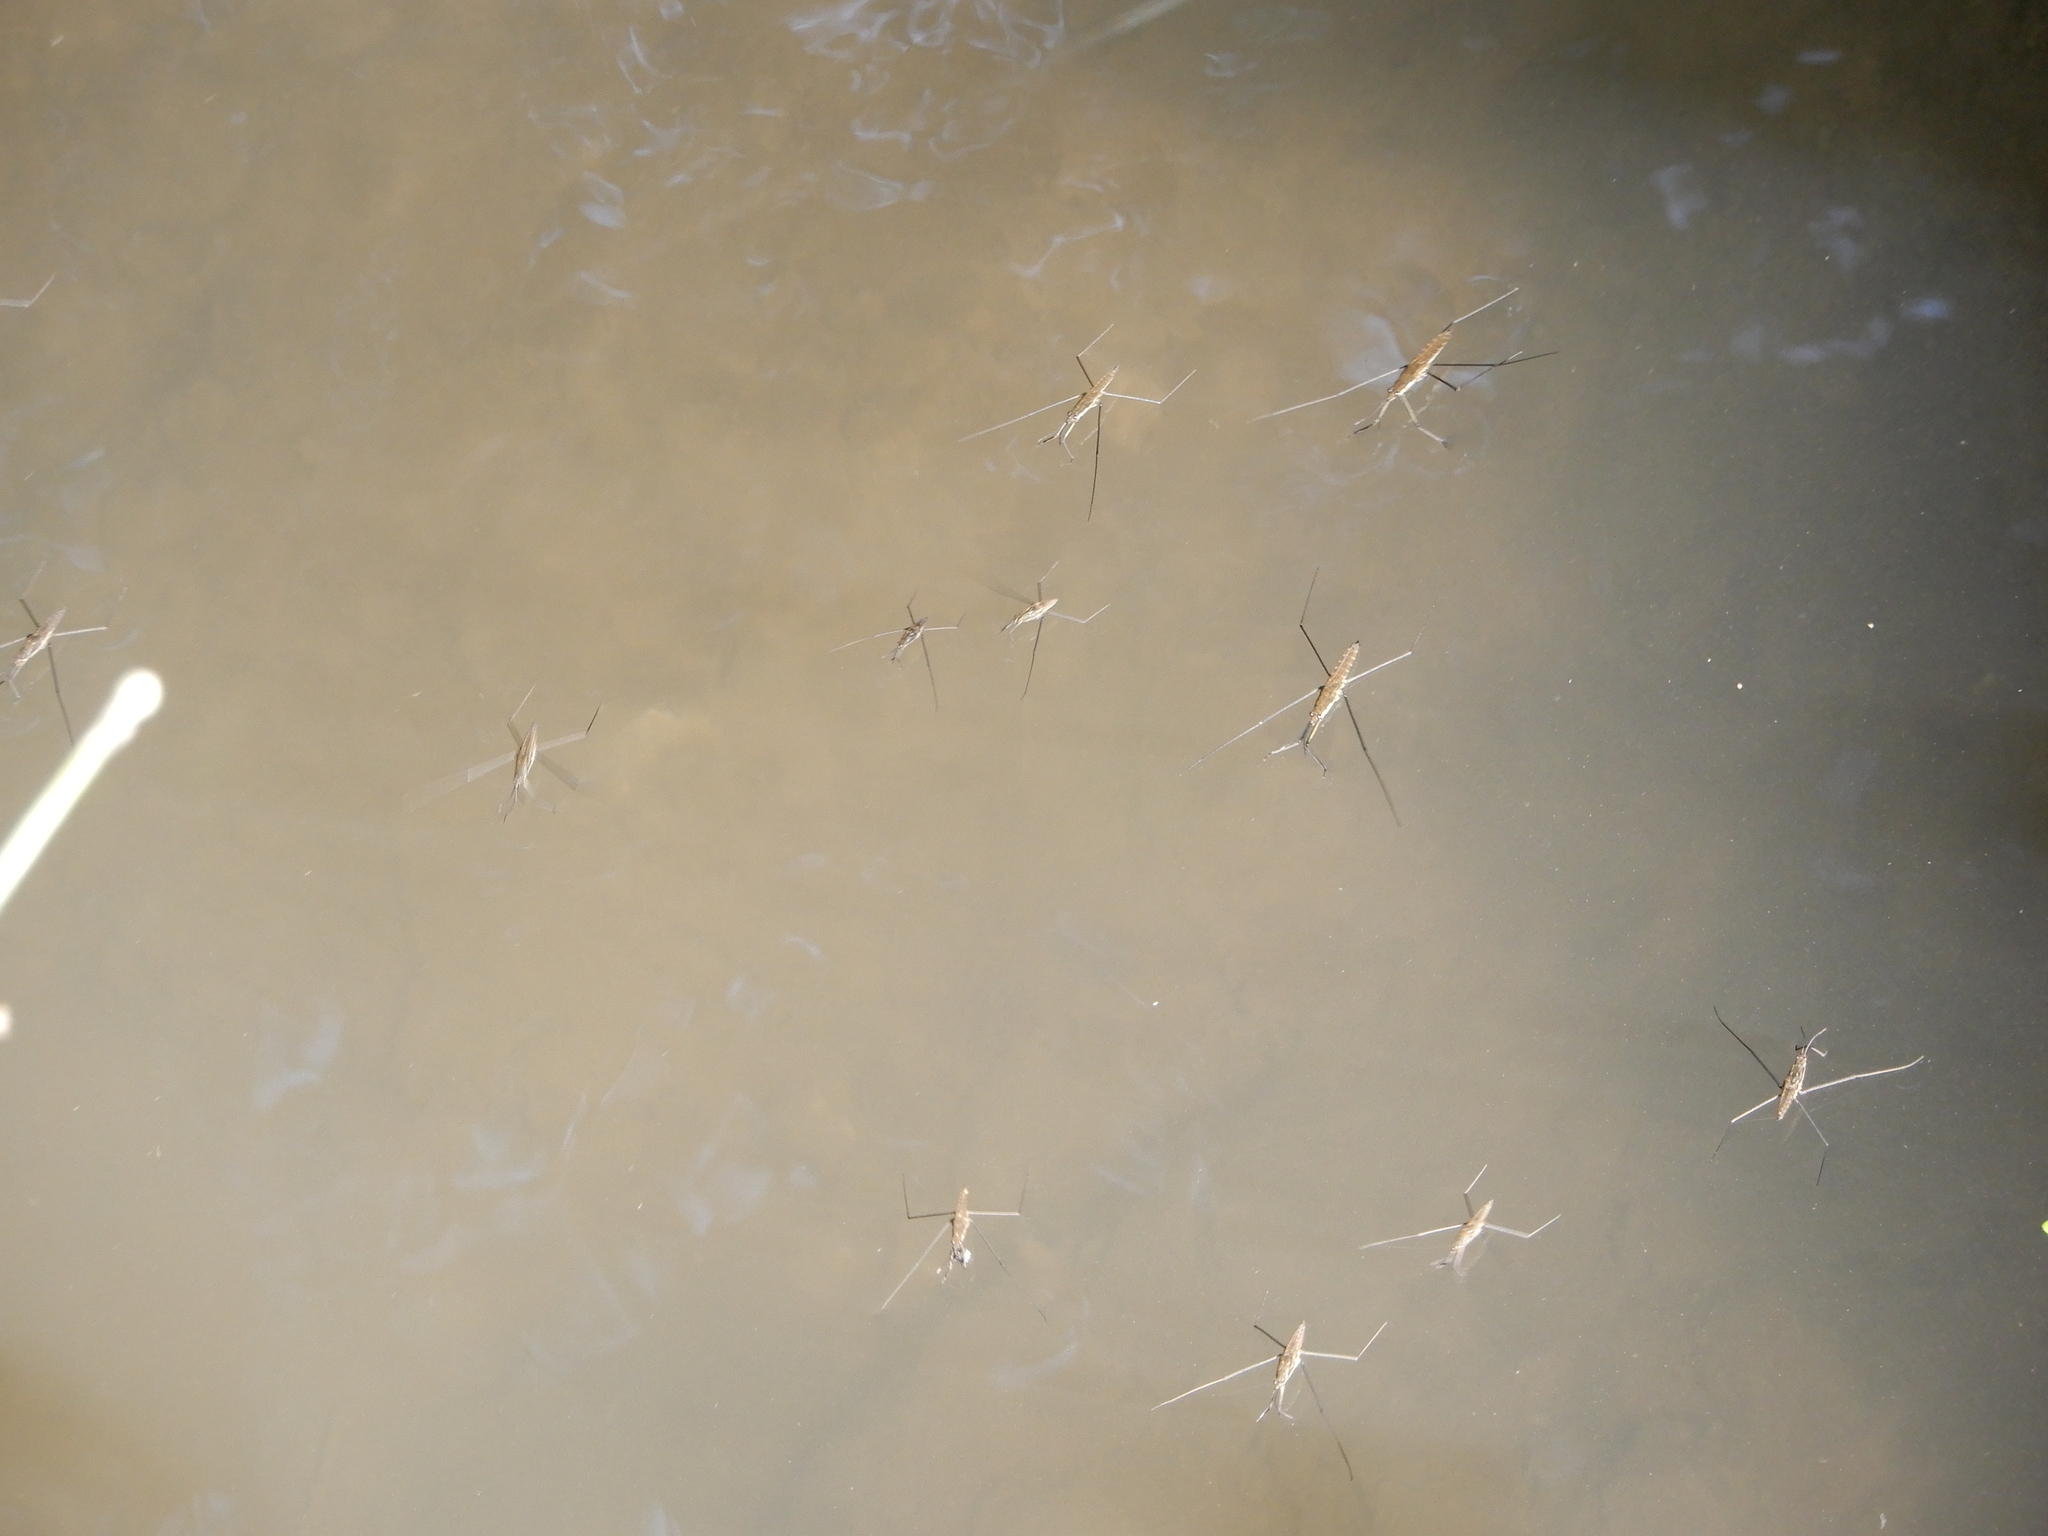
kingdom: Animalia
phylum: Arthropoda
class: Insecta
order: Hemiptera
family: Gerridae
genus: Aquarius
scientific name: Aquarius najas
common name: River skater
